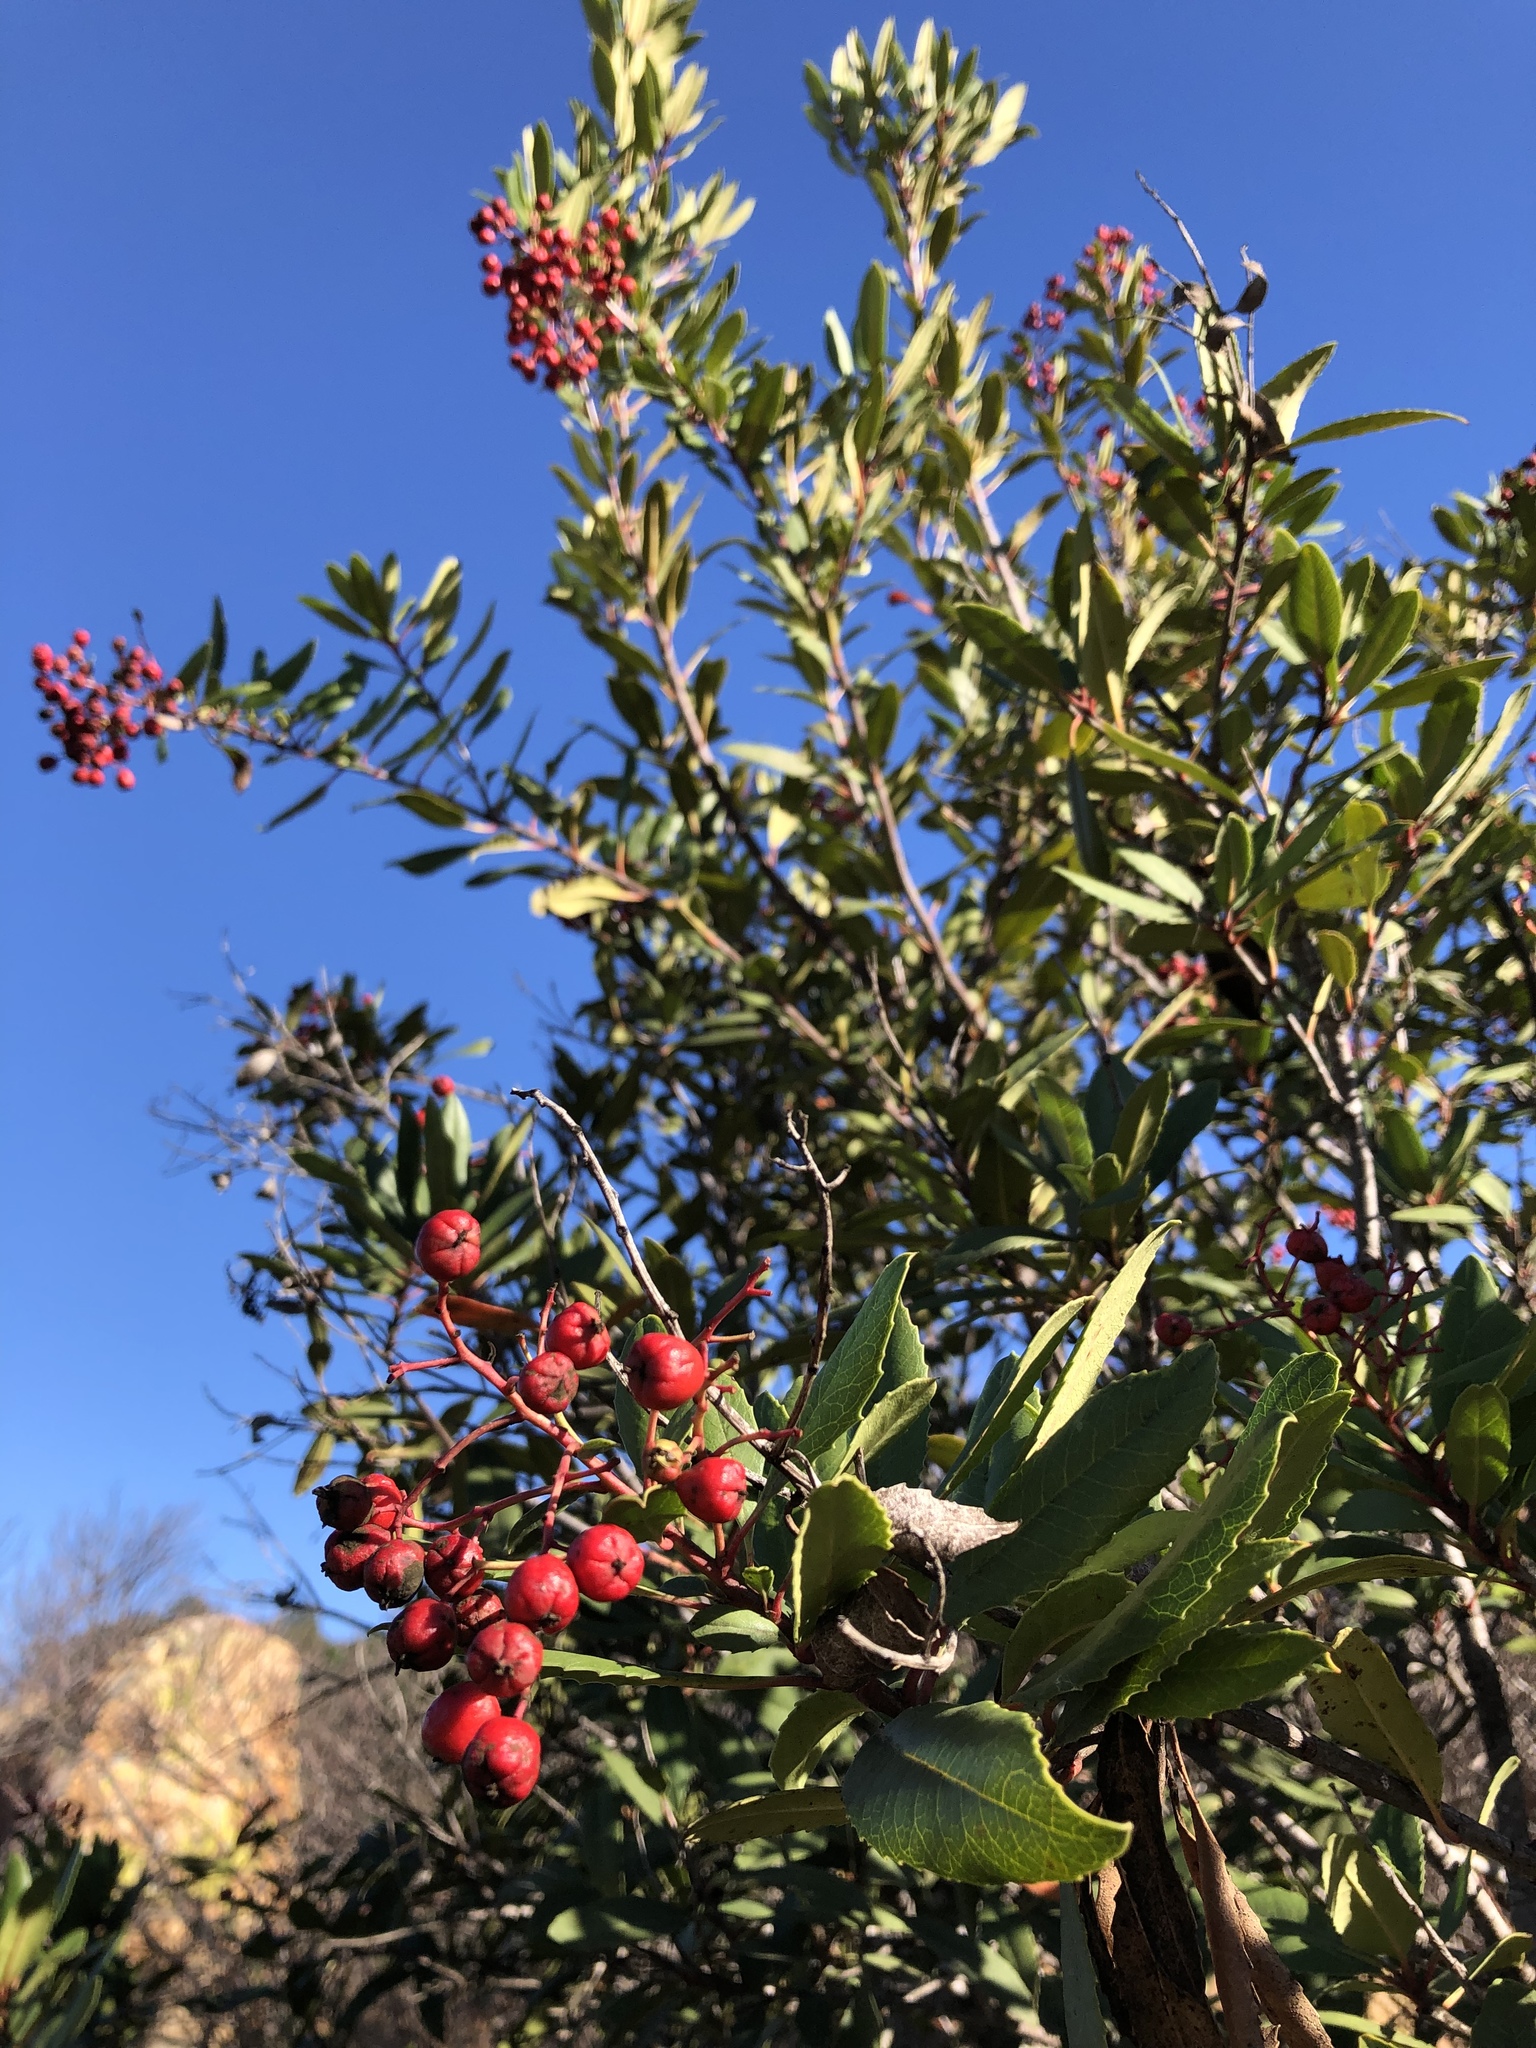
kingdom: Plantae
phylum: Tracheophyta
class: Magnoliopsida
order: Rosales
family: Rosaceae
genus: Heteromeles
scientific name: Heteromeles arbutifolia
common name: California-holly
